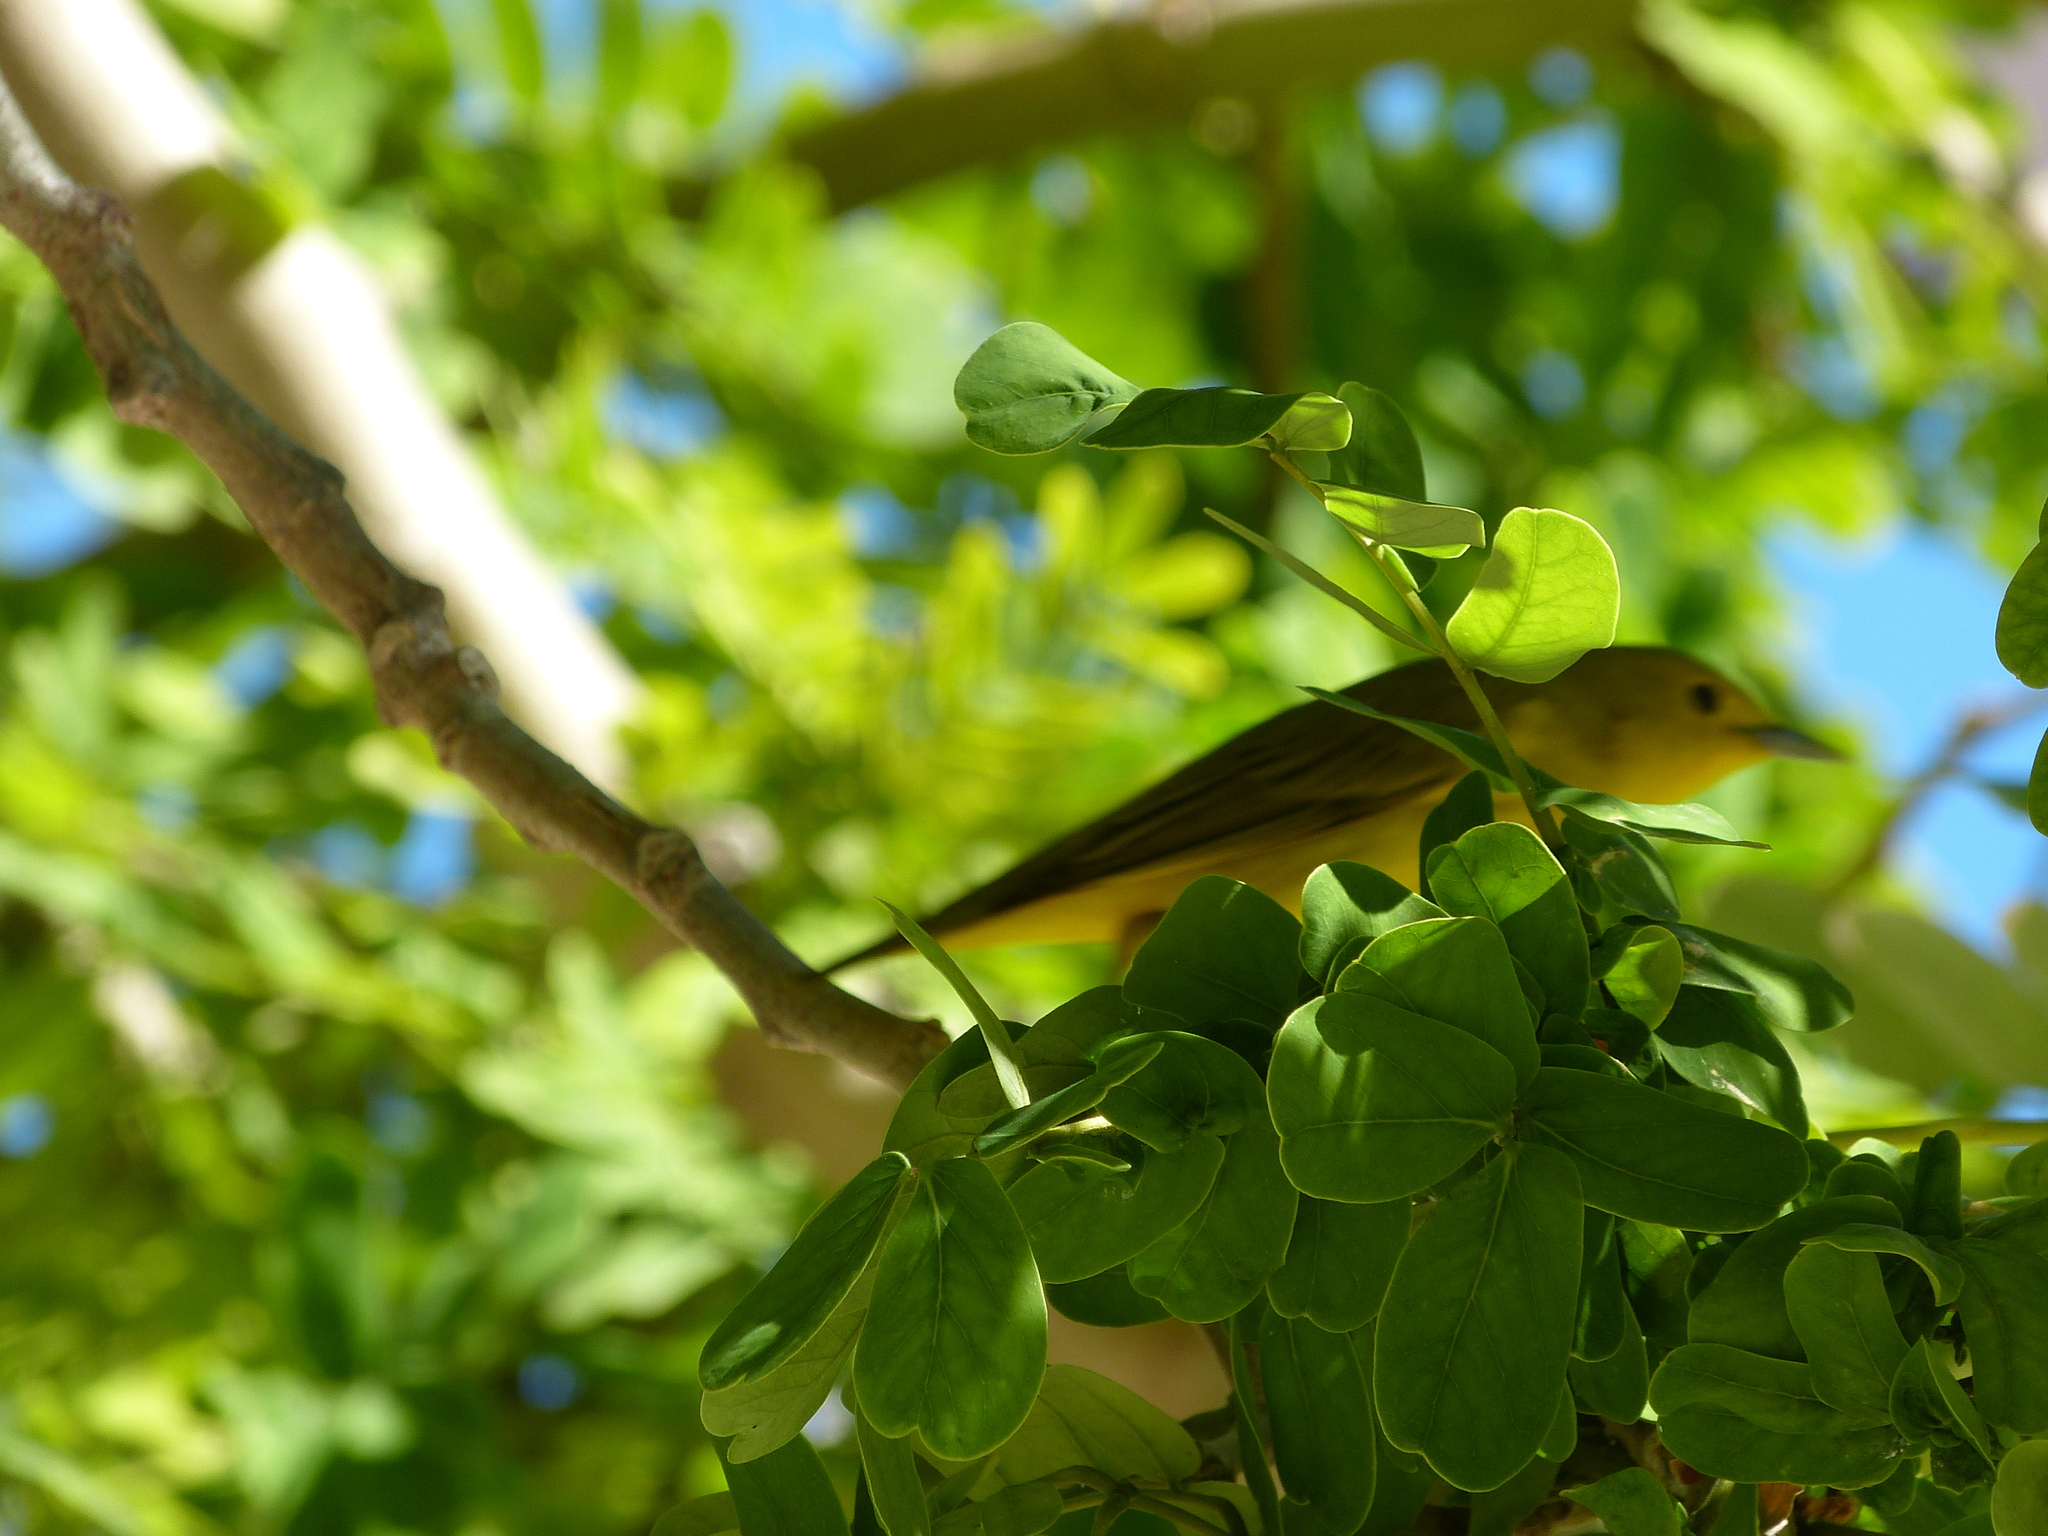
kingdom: Animalia
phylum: Chordata
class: Aves
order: Passeriformes
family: Parulidae
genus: Setophaga
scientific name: Setophaga petechia
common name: Yellow warbler
